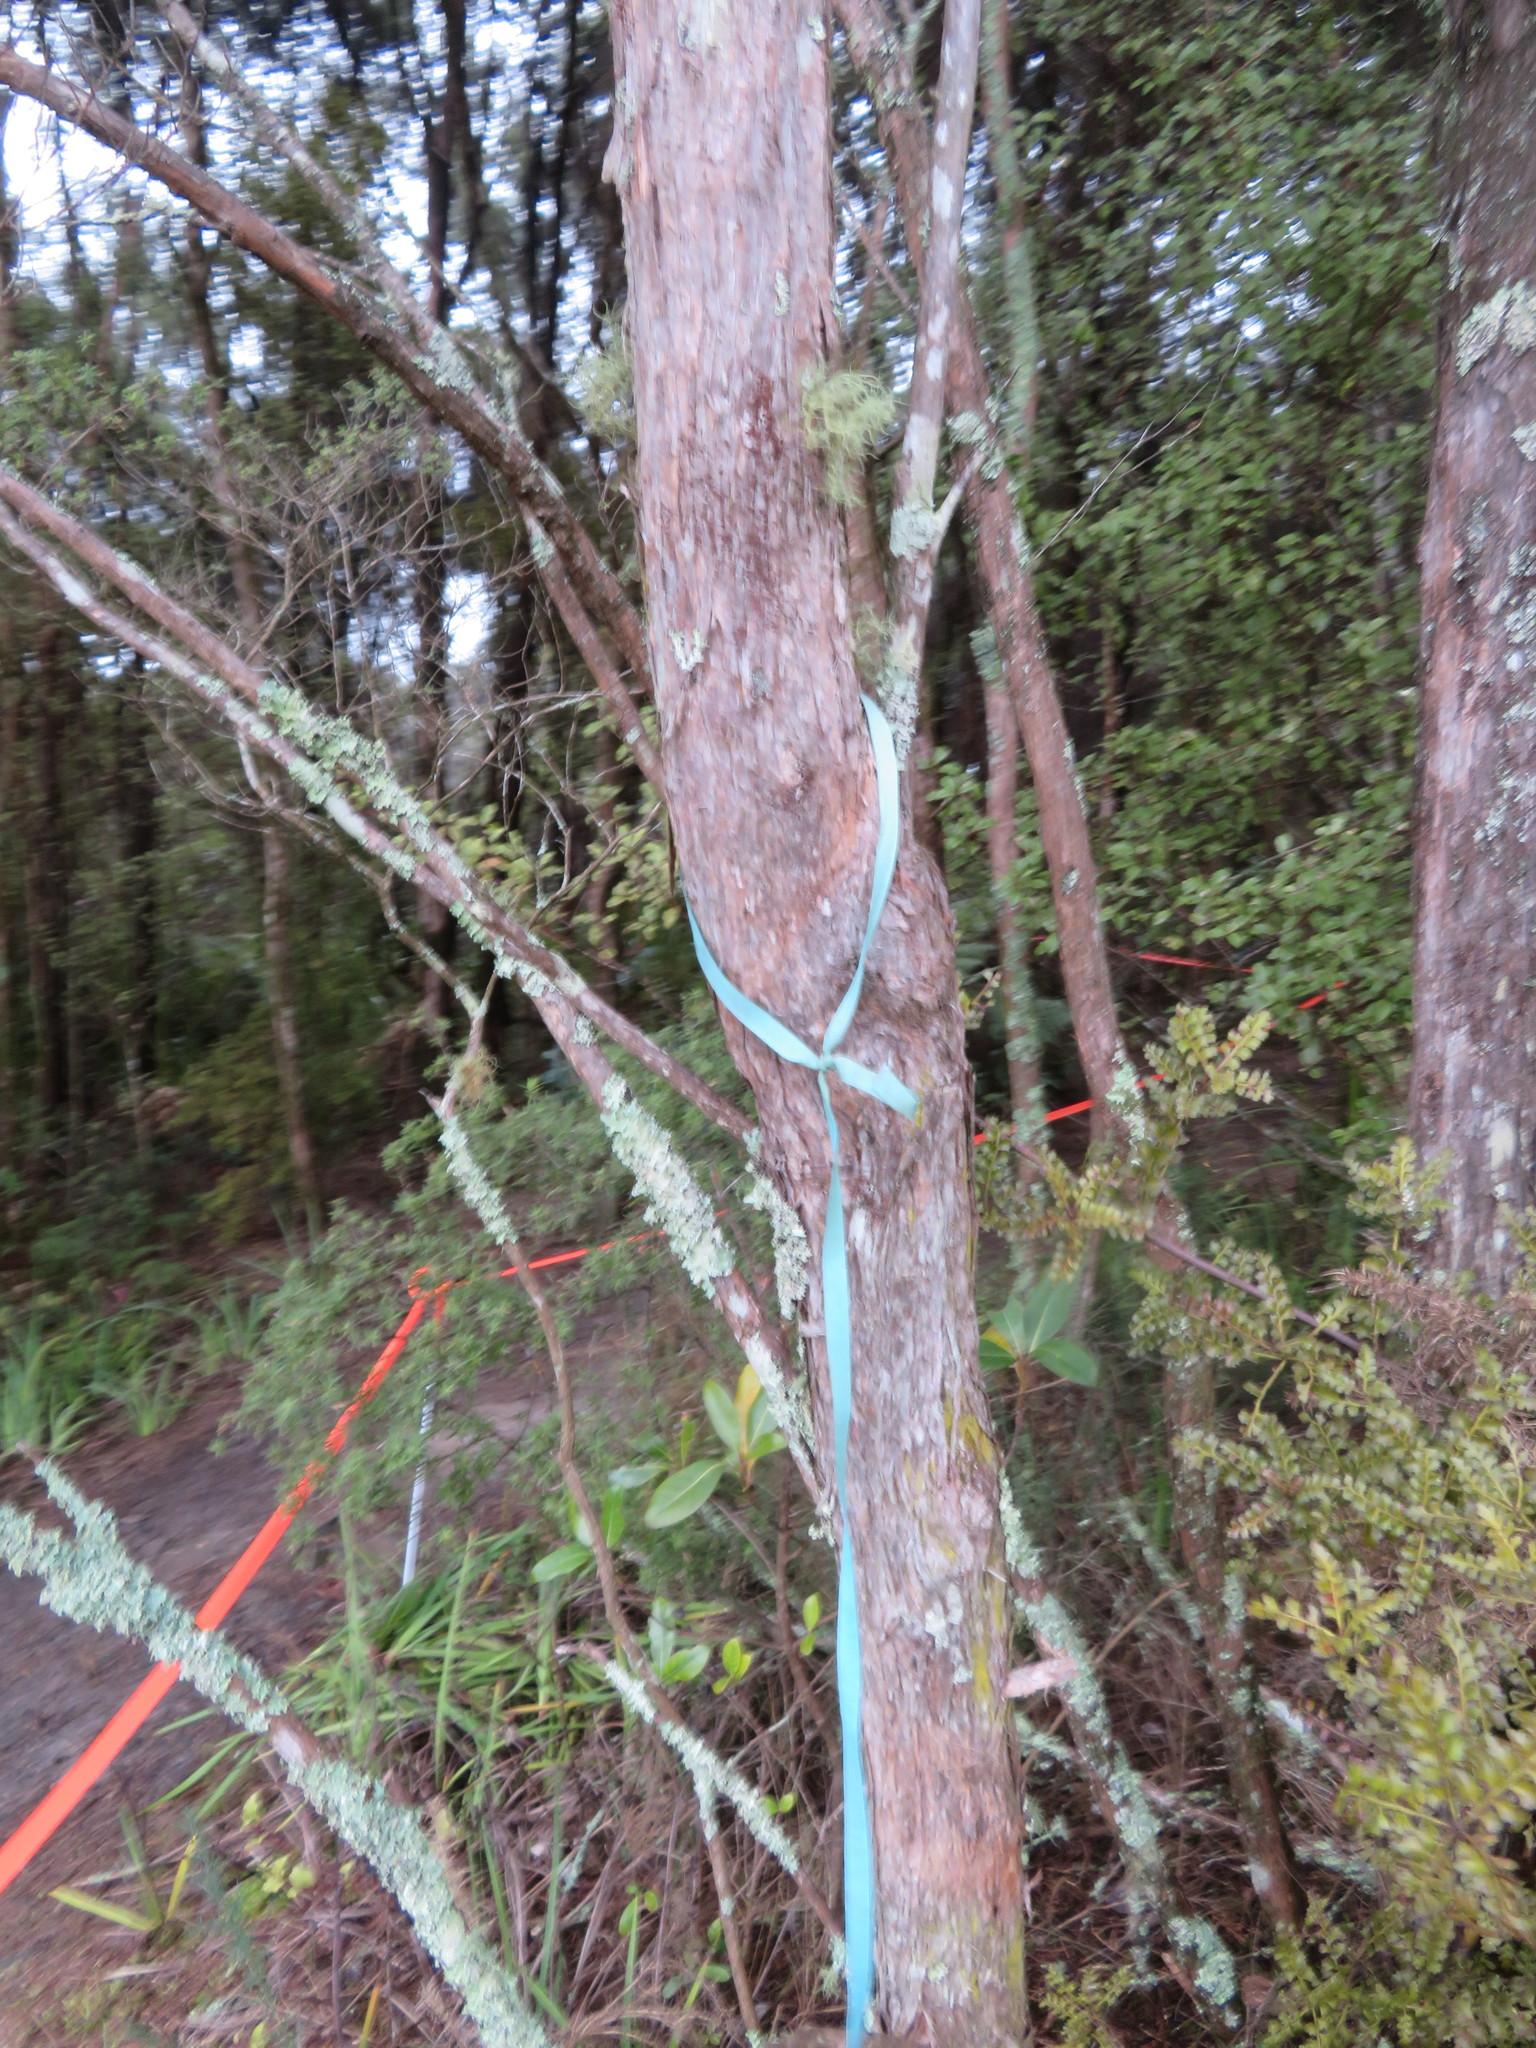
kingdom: Plantae
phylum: Tracheophyta
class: Pinopsida
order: Pinales
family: Phyllocladaceae
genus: Phyllocladus
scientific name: Phyllocladus trichomanoides
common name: Celery pine
